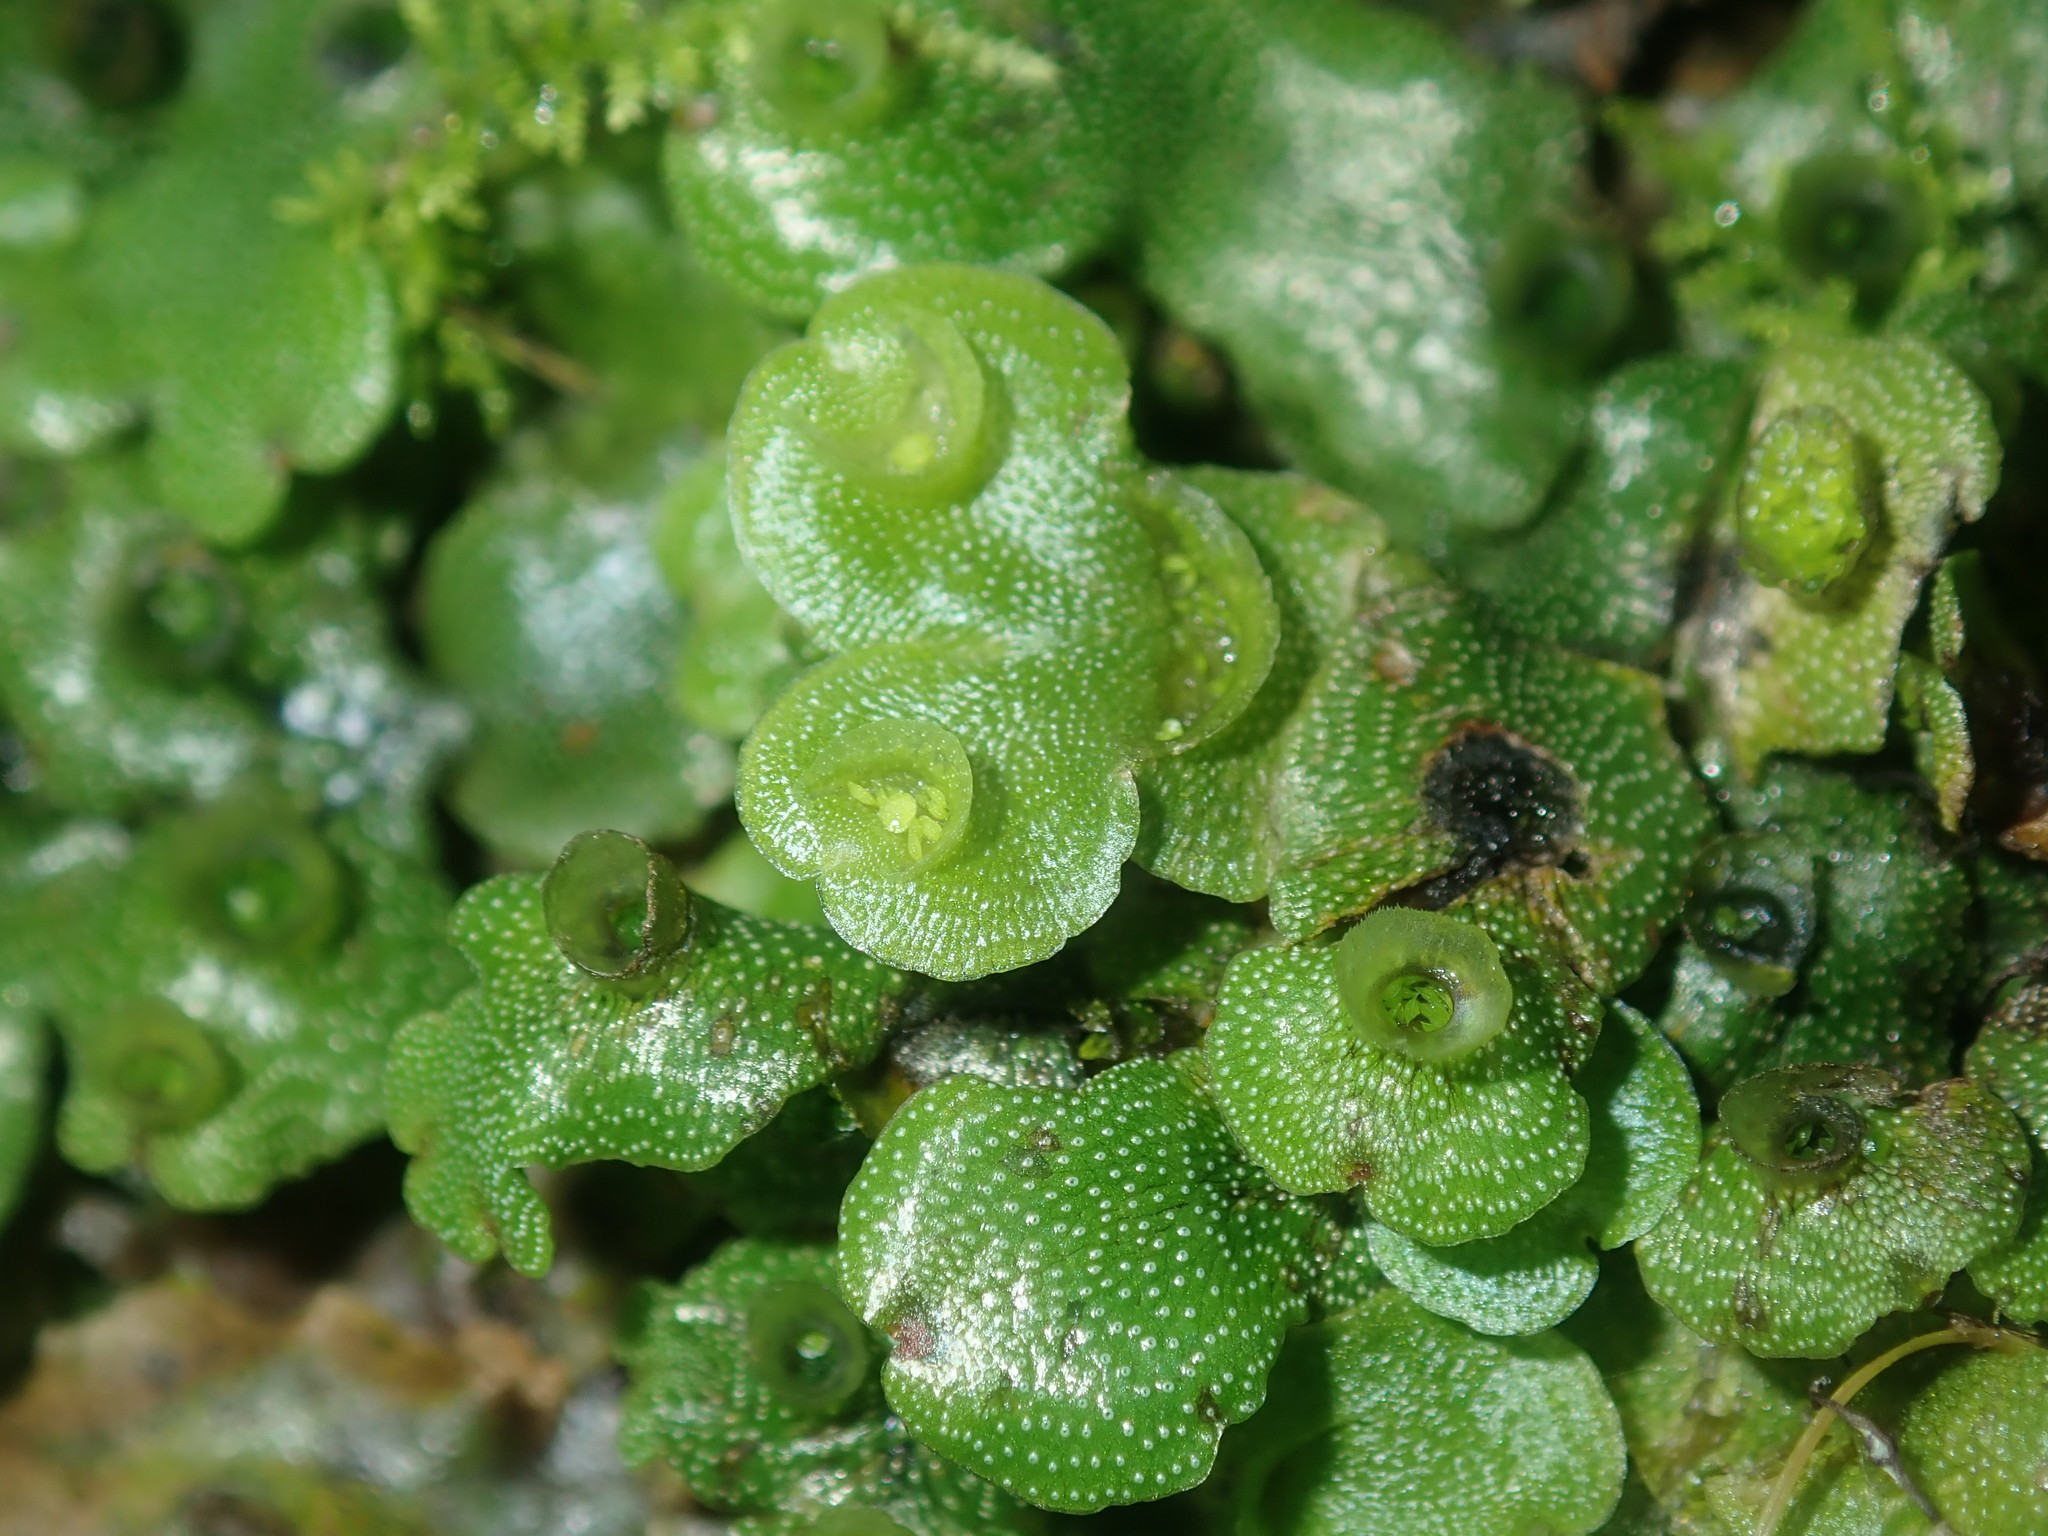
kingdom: Plantae
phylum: Marchantiophyta
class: Marchantiopsida
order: Lunulariales
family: Lunulariaceae
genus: Lunularia
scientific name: Lunularia cruciata
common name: Crescent-cup liverwort
